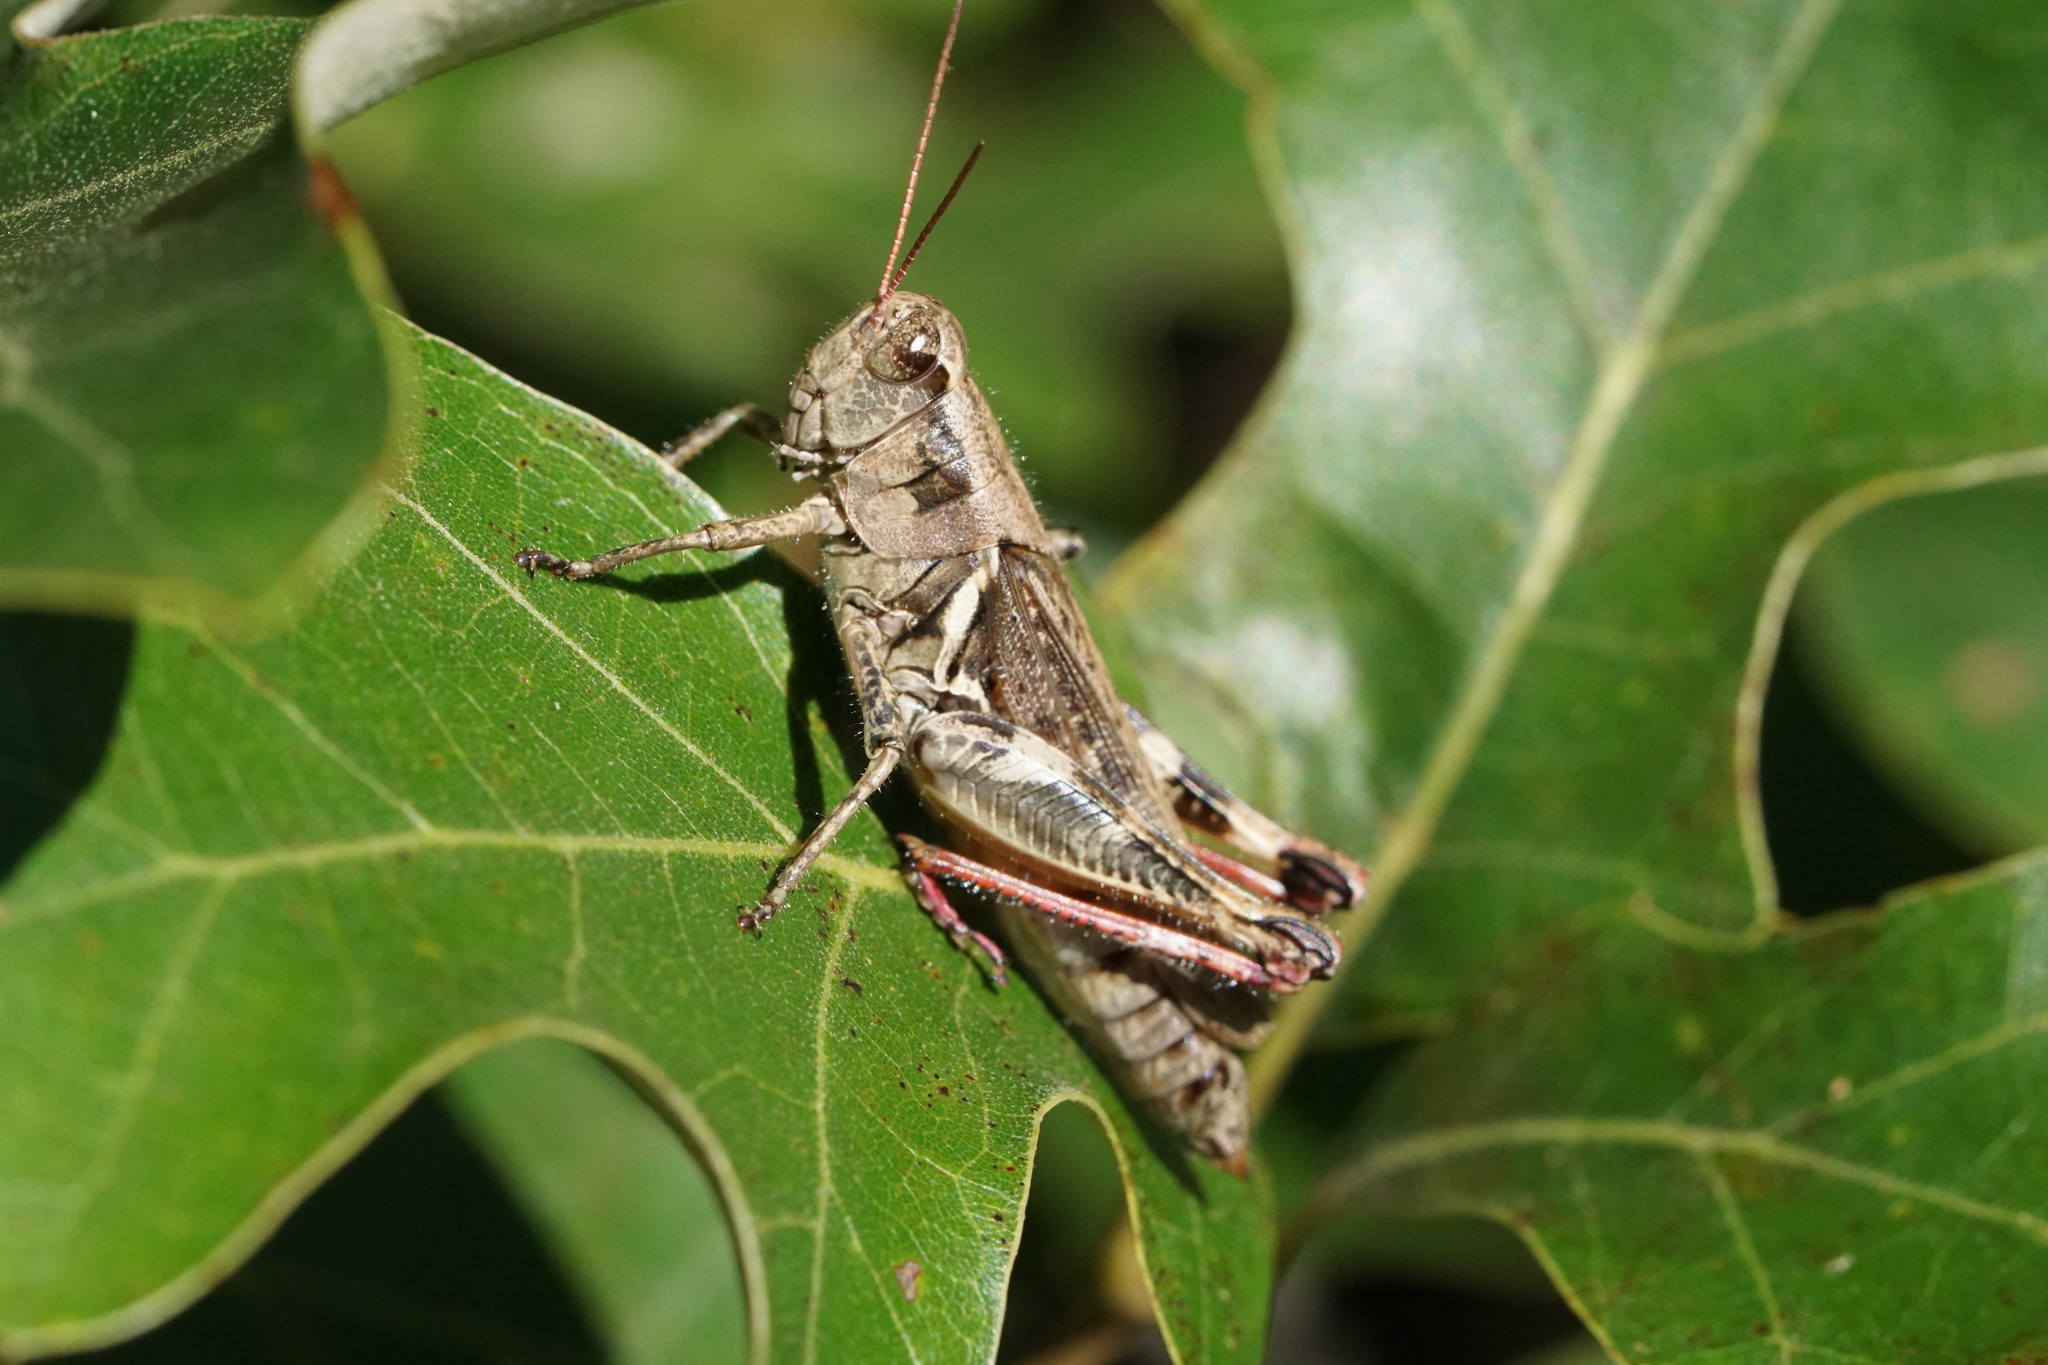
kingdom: Animalia
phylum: Arthropoda
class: Insecta
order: Orthoptera
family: Acrididae
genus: Melanoplus
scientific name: Melanoplus keeleri
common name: Keeler grasshopper
